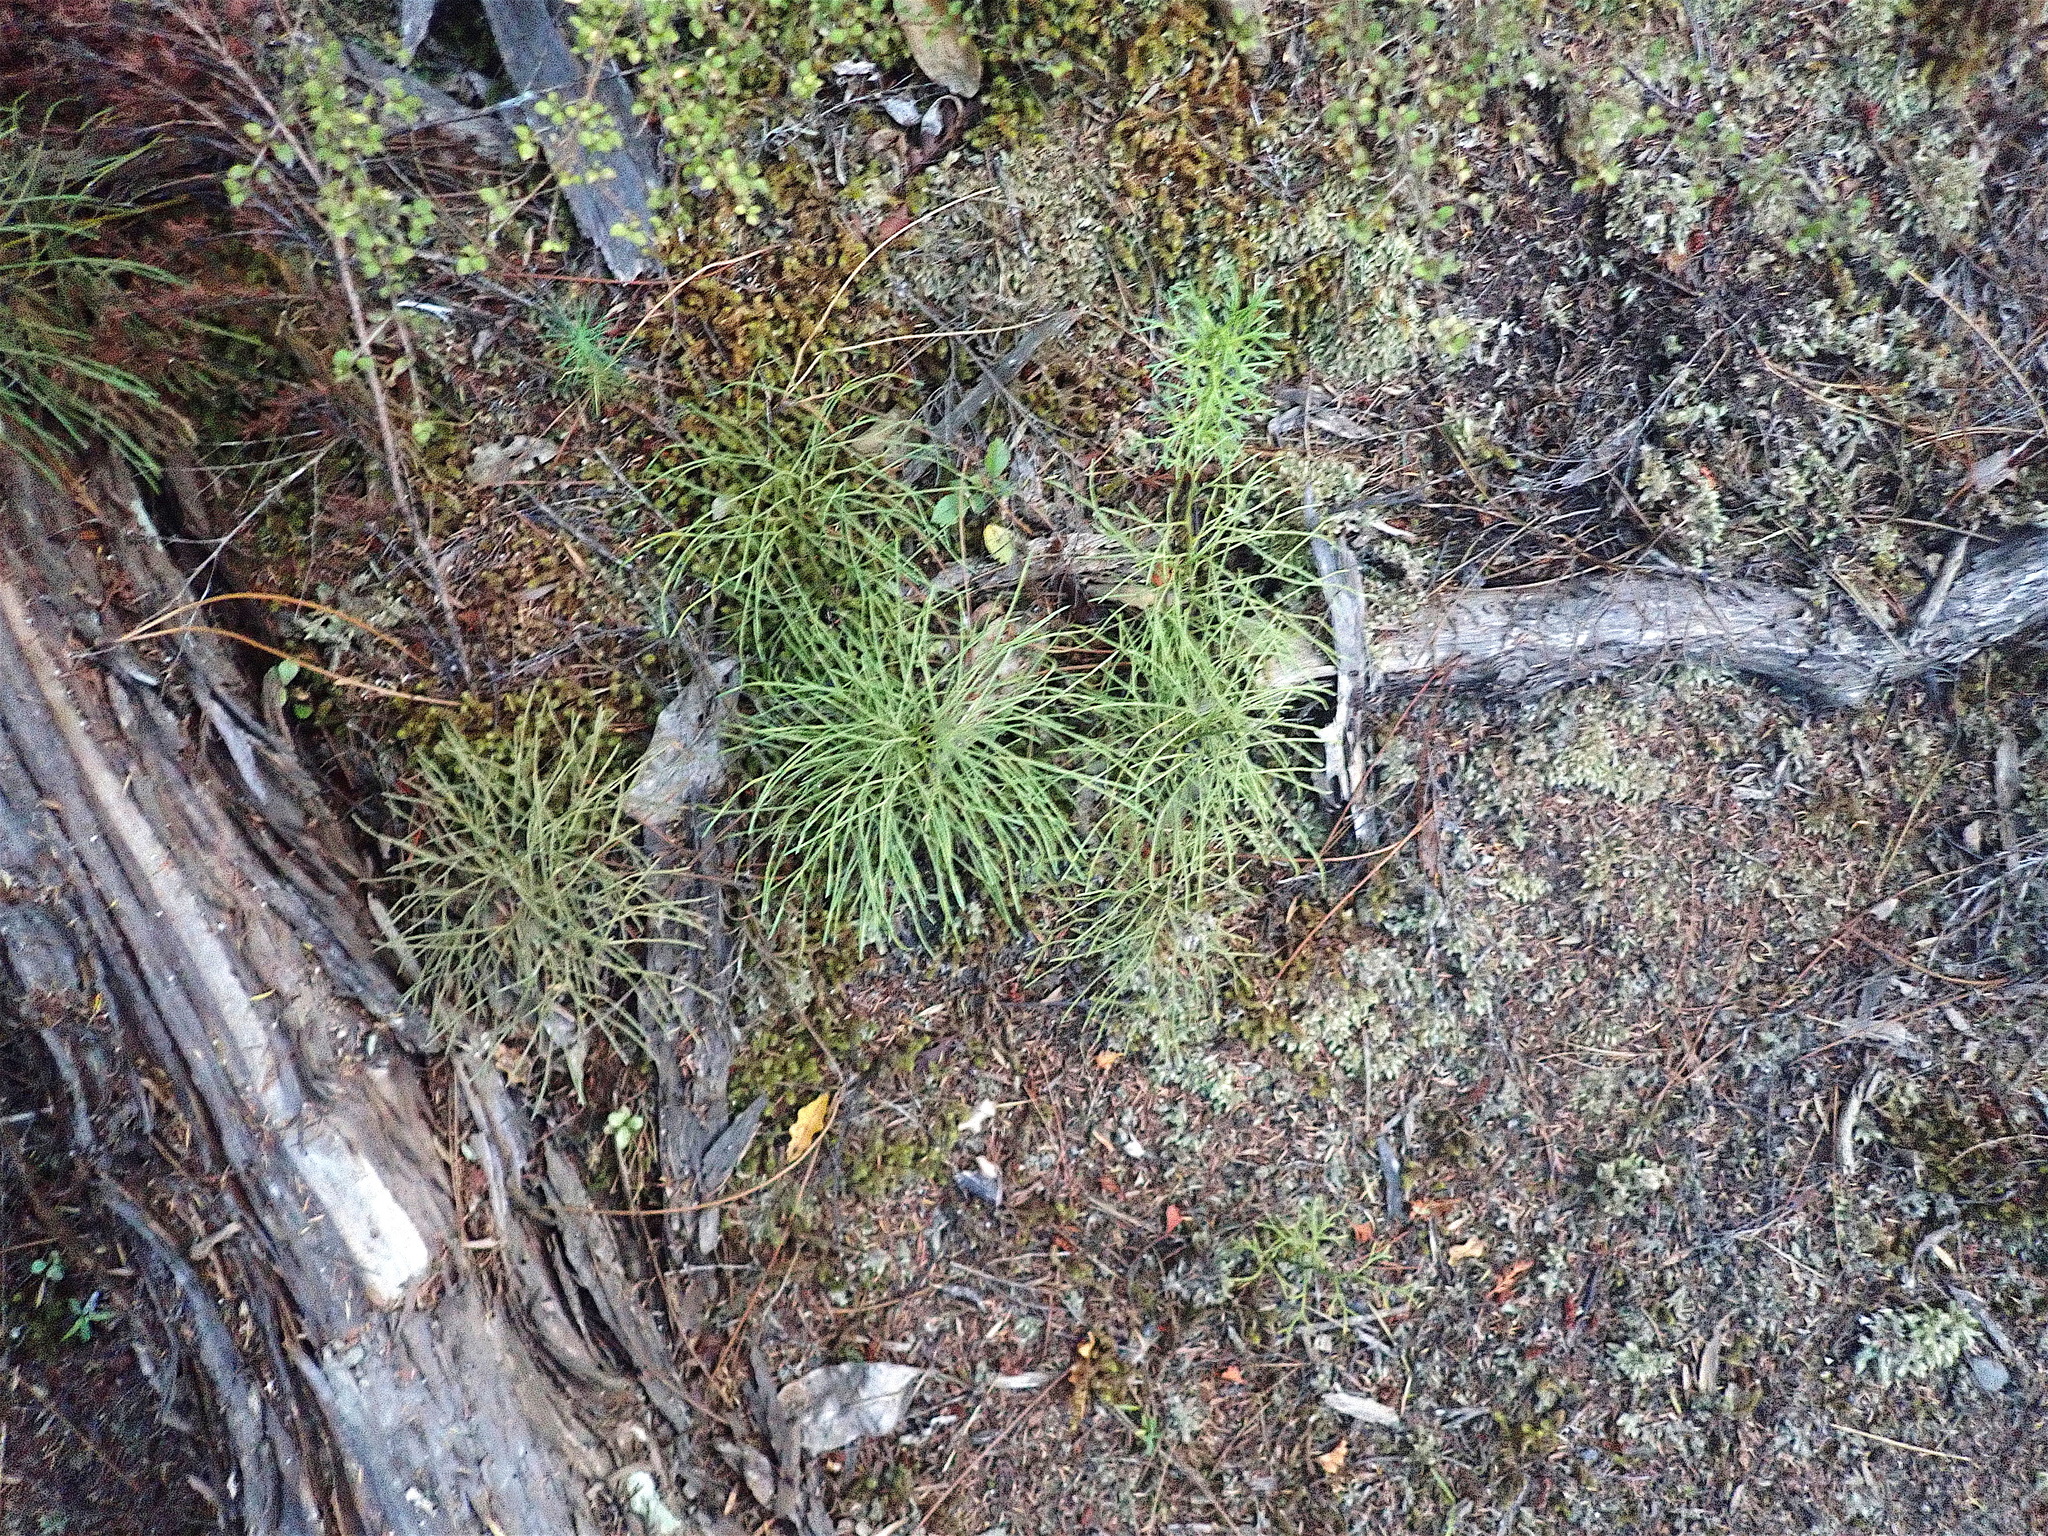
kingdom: Plantae
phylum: Tracheophyta
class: Lycopodiopsida
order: Lycopodiales
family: Lycopodiaceae
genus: Pseudolycopodium
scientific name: Pseudolycopodium densum
